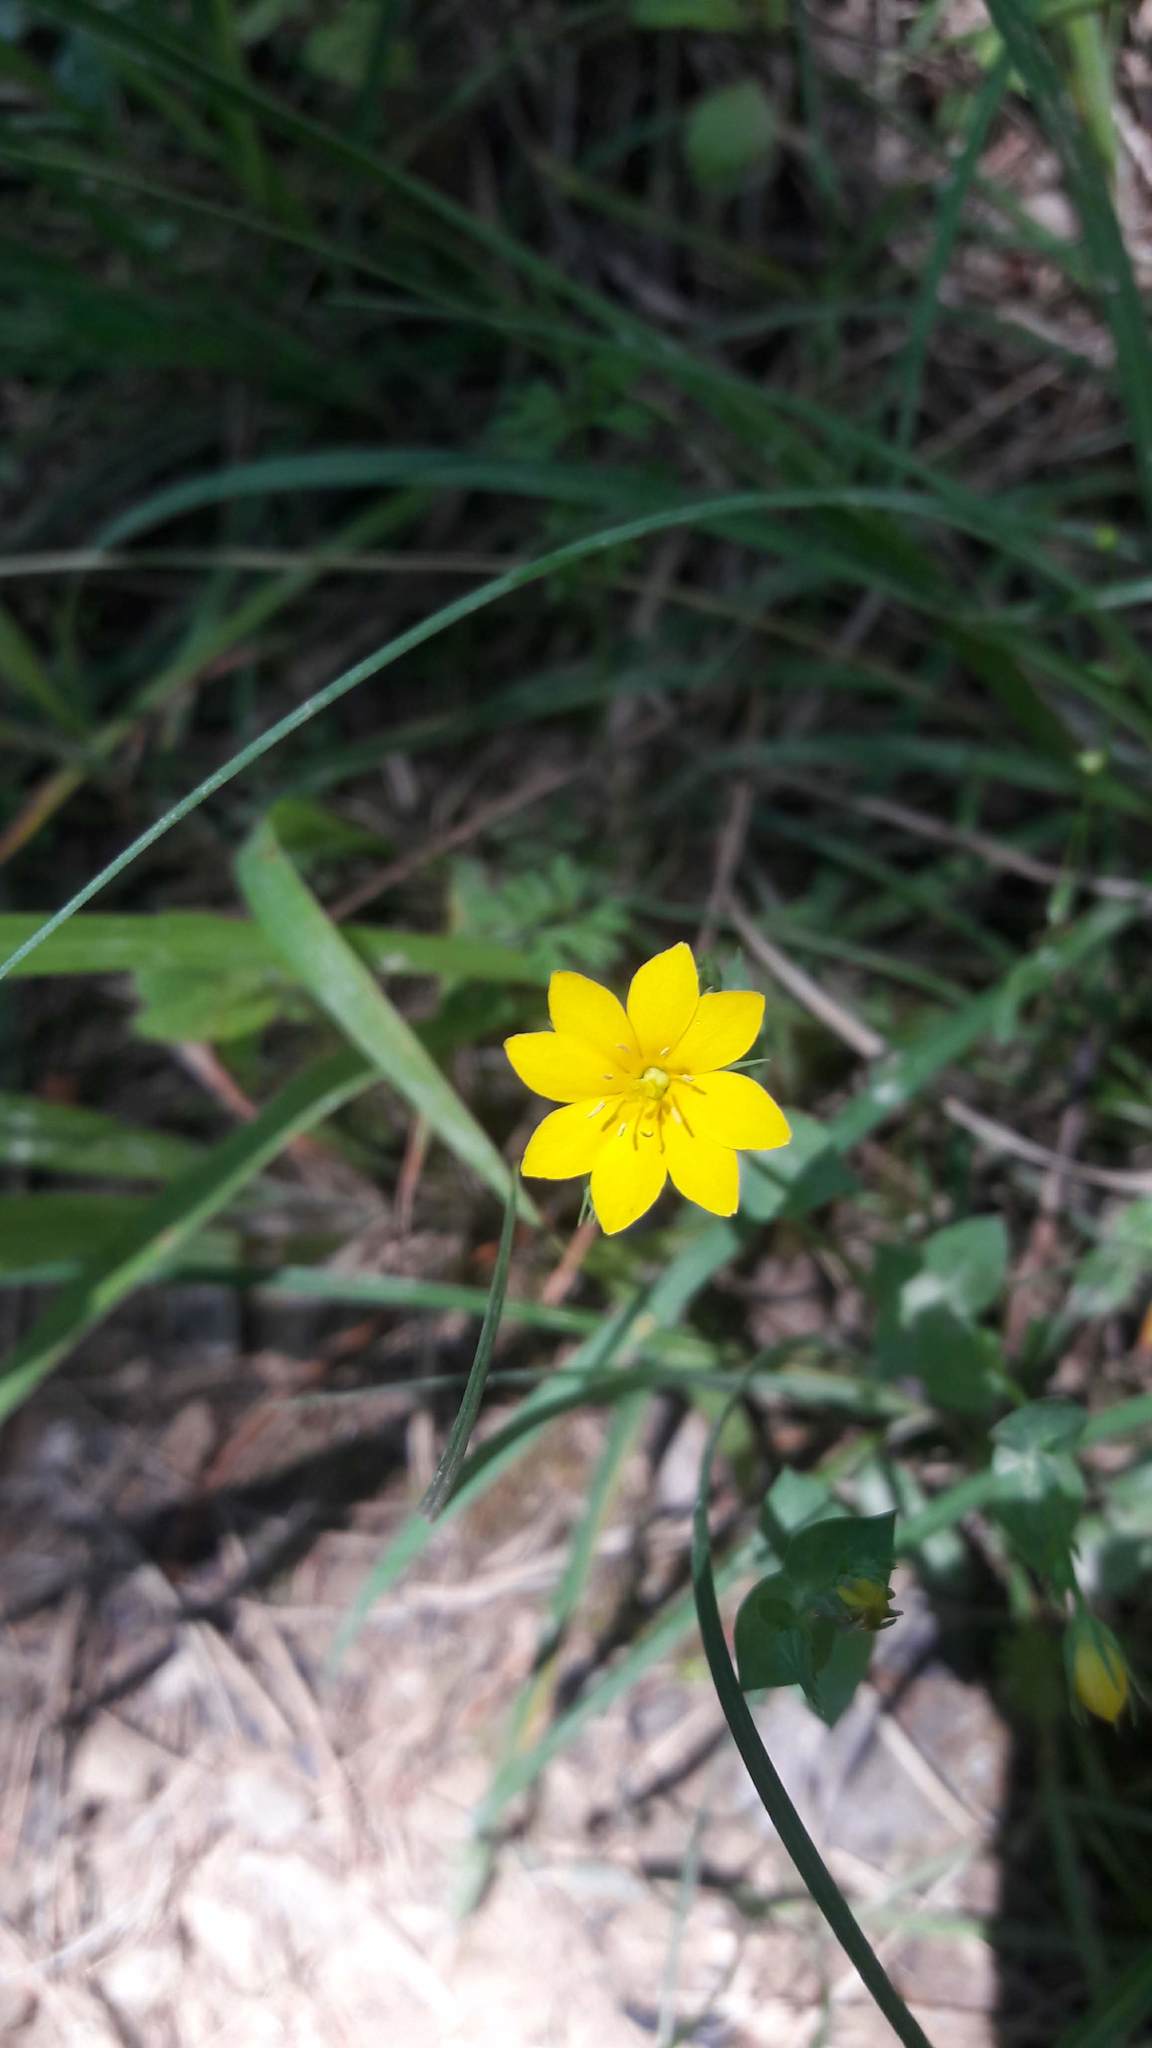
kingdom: Plantae
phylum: Tracheophyta
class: Magnoliopsida
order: Gentianales
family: Gentianaceae
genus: Blackstonia
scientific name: Blackstonia perfoliata
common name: Yellow-wort
